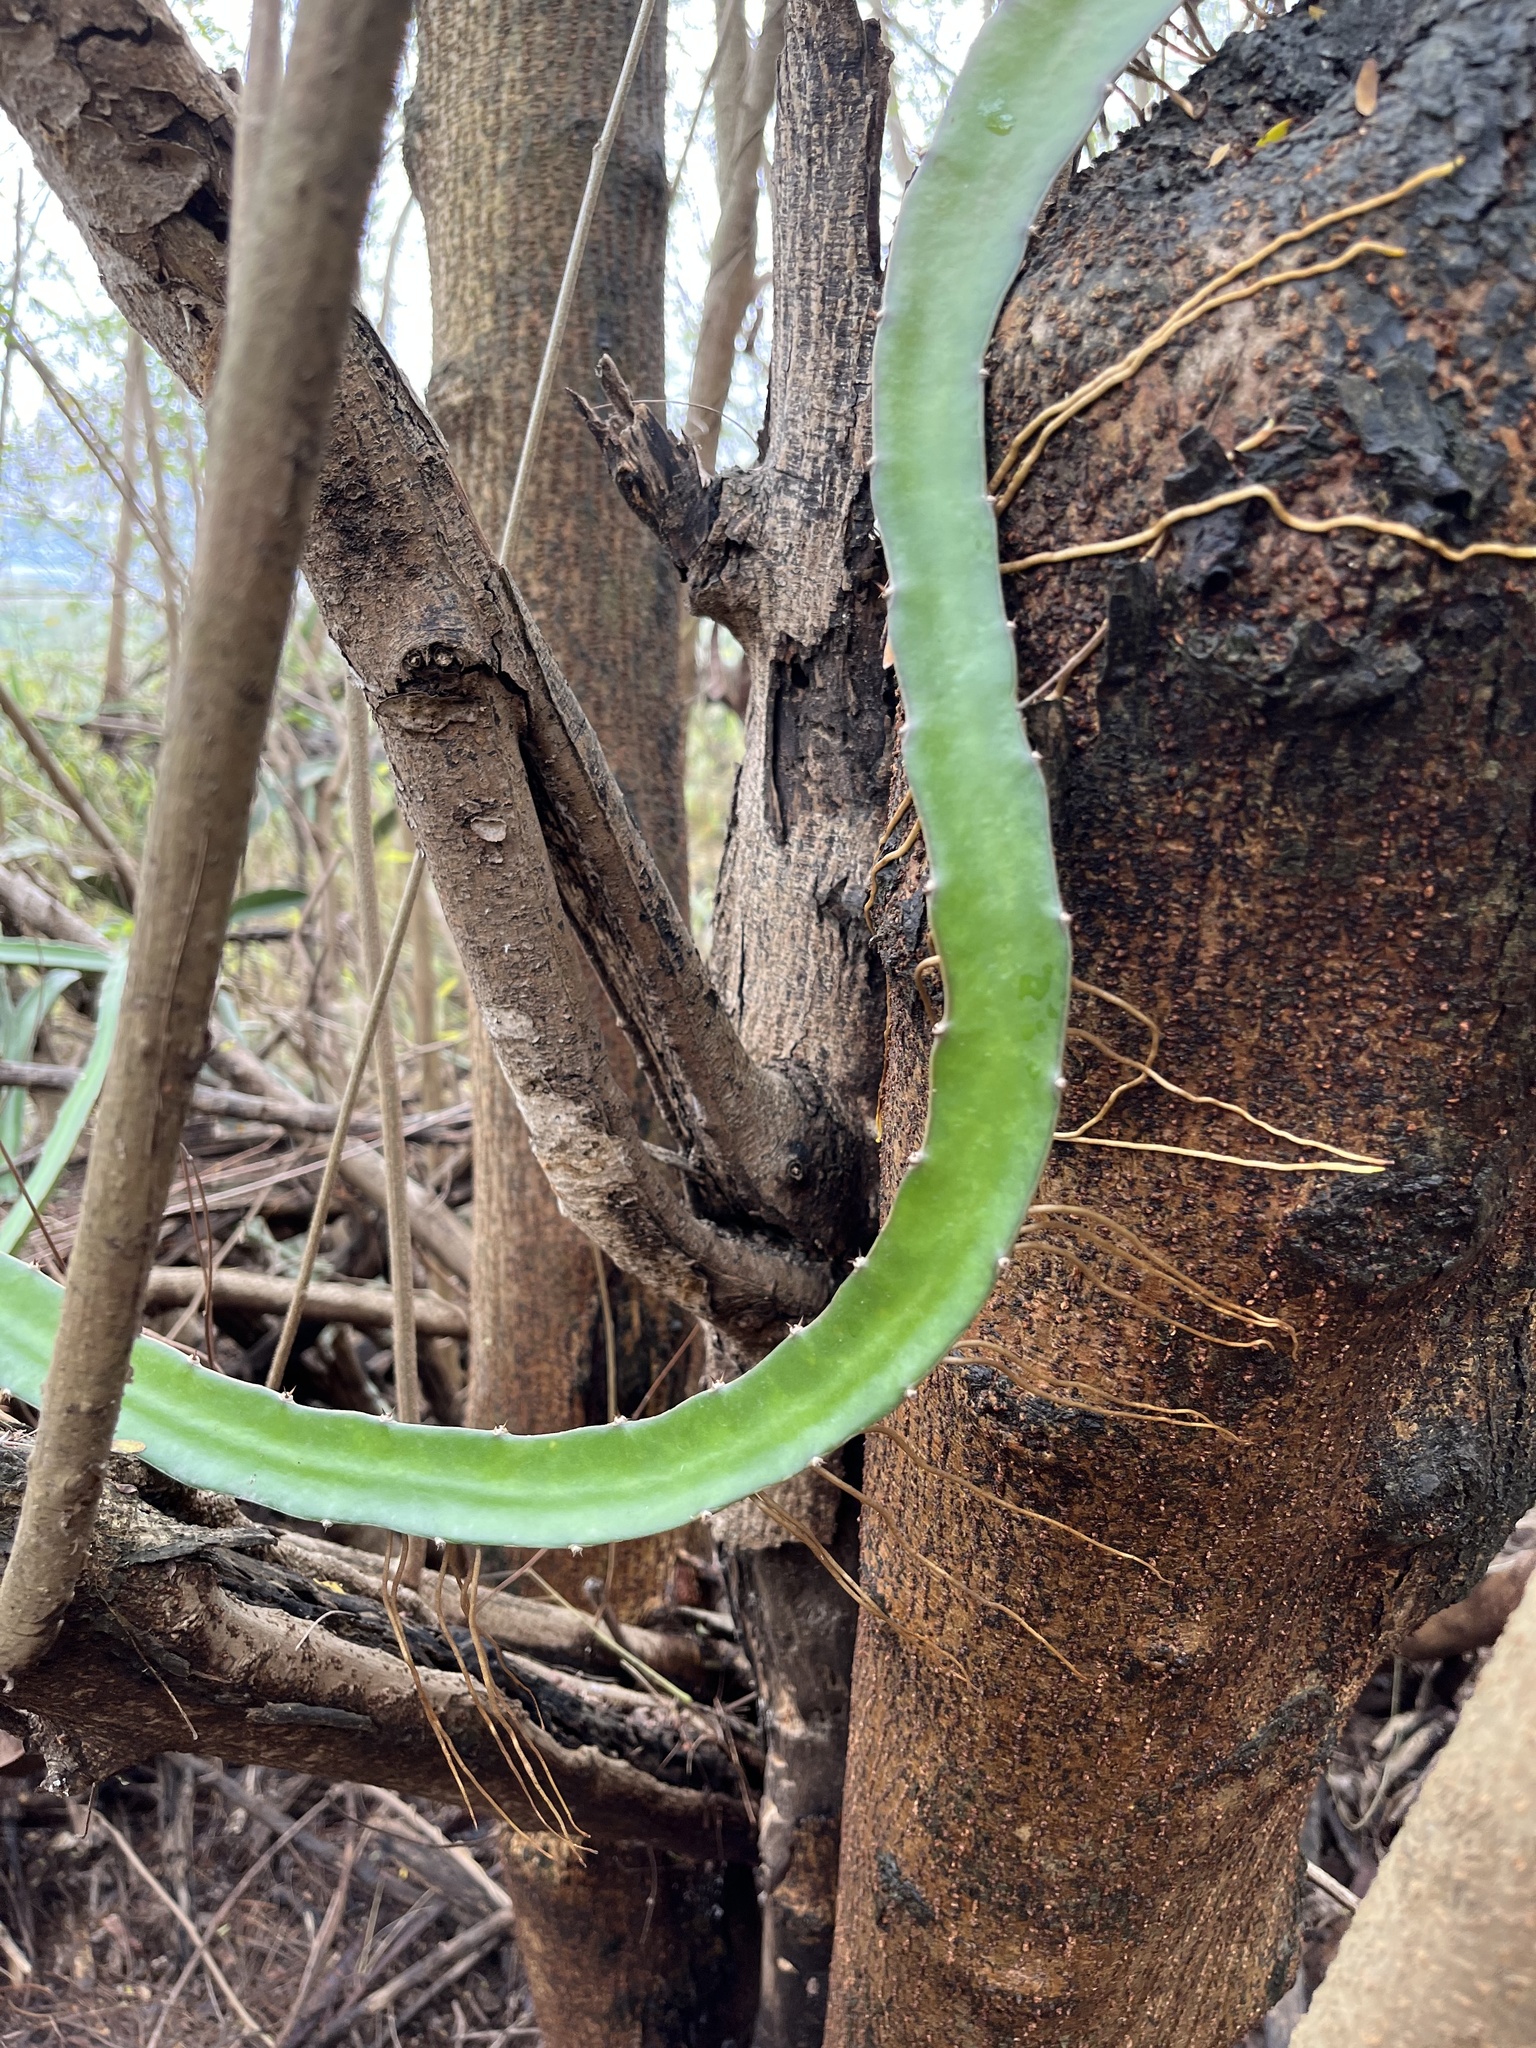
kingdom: Plantae
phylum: Tracheophyta
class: Magnoliopsida
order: Caryophyllales
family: Cactaceae
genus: Selenicereus
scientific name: Selenicereus undatus
